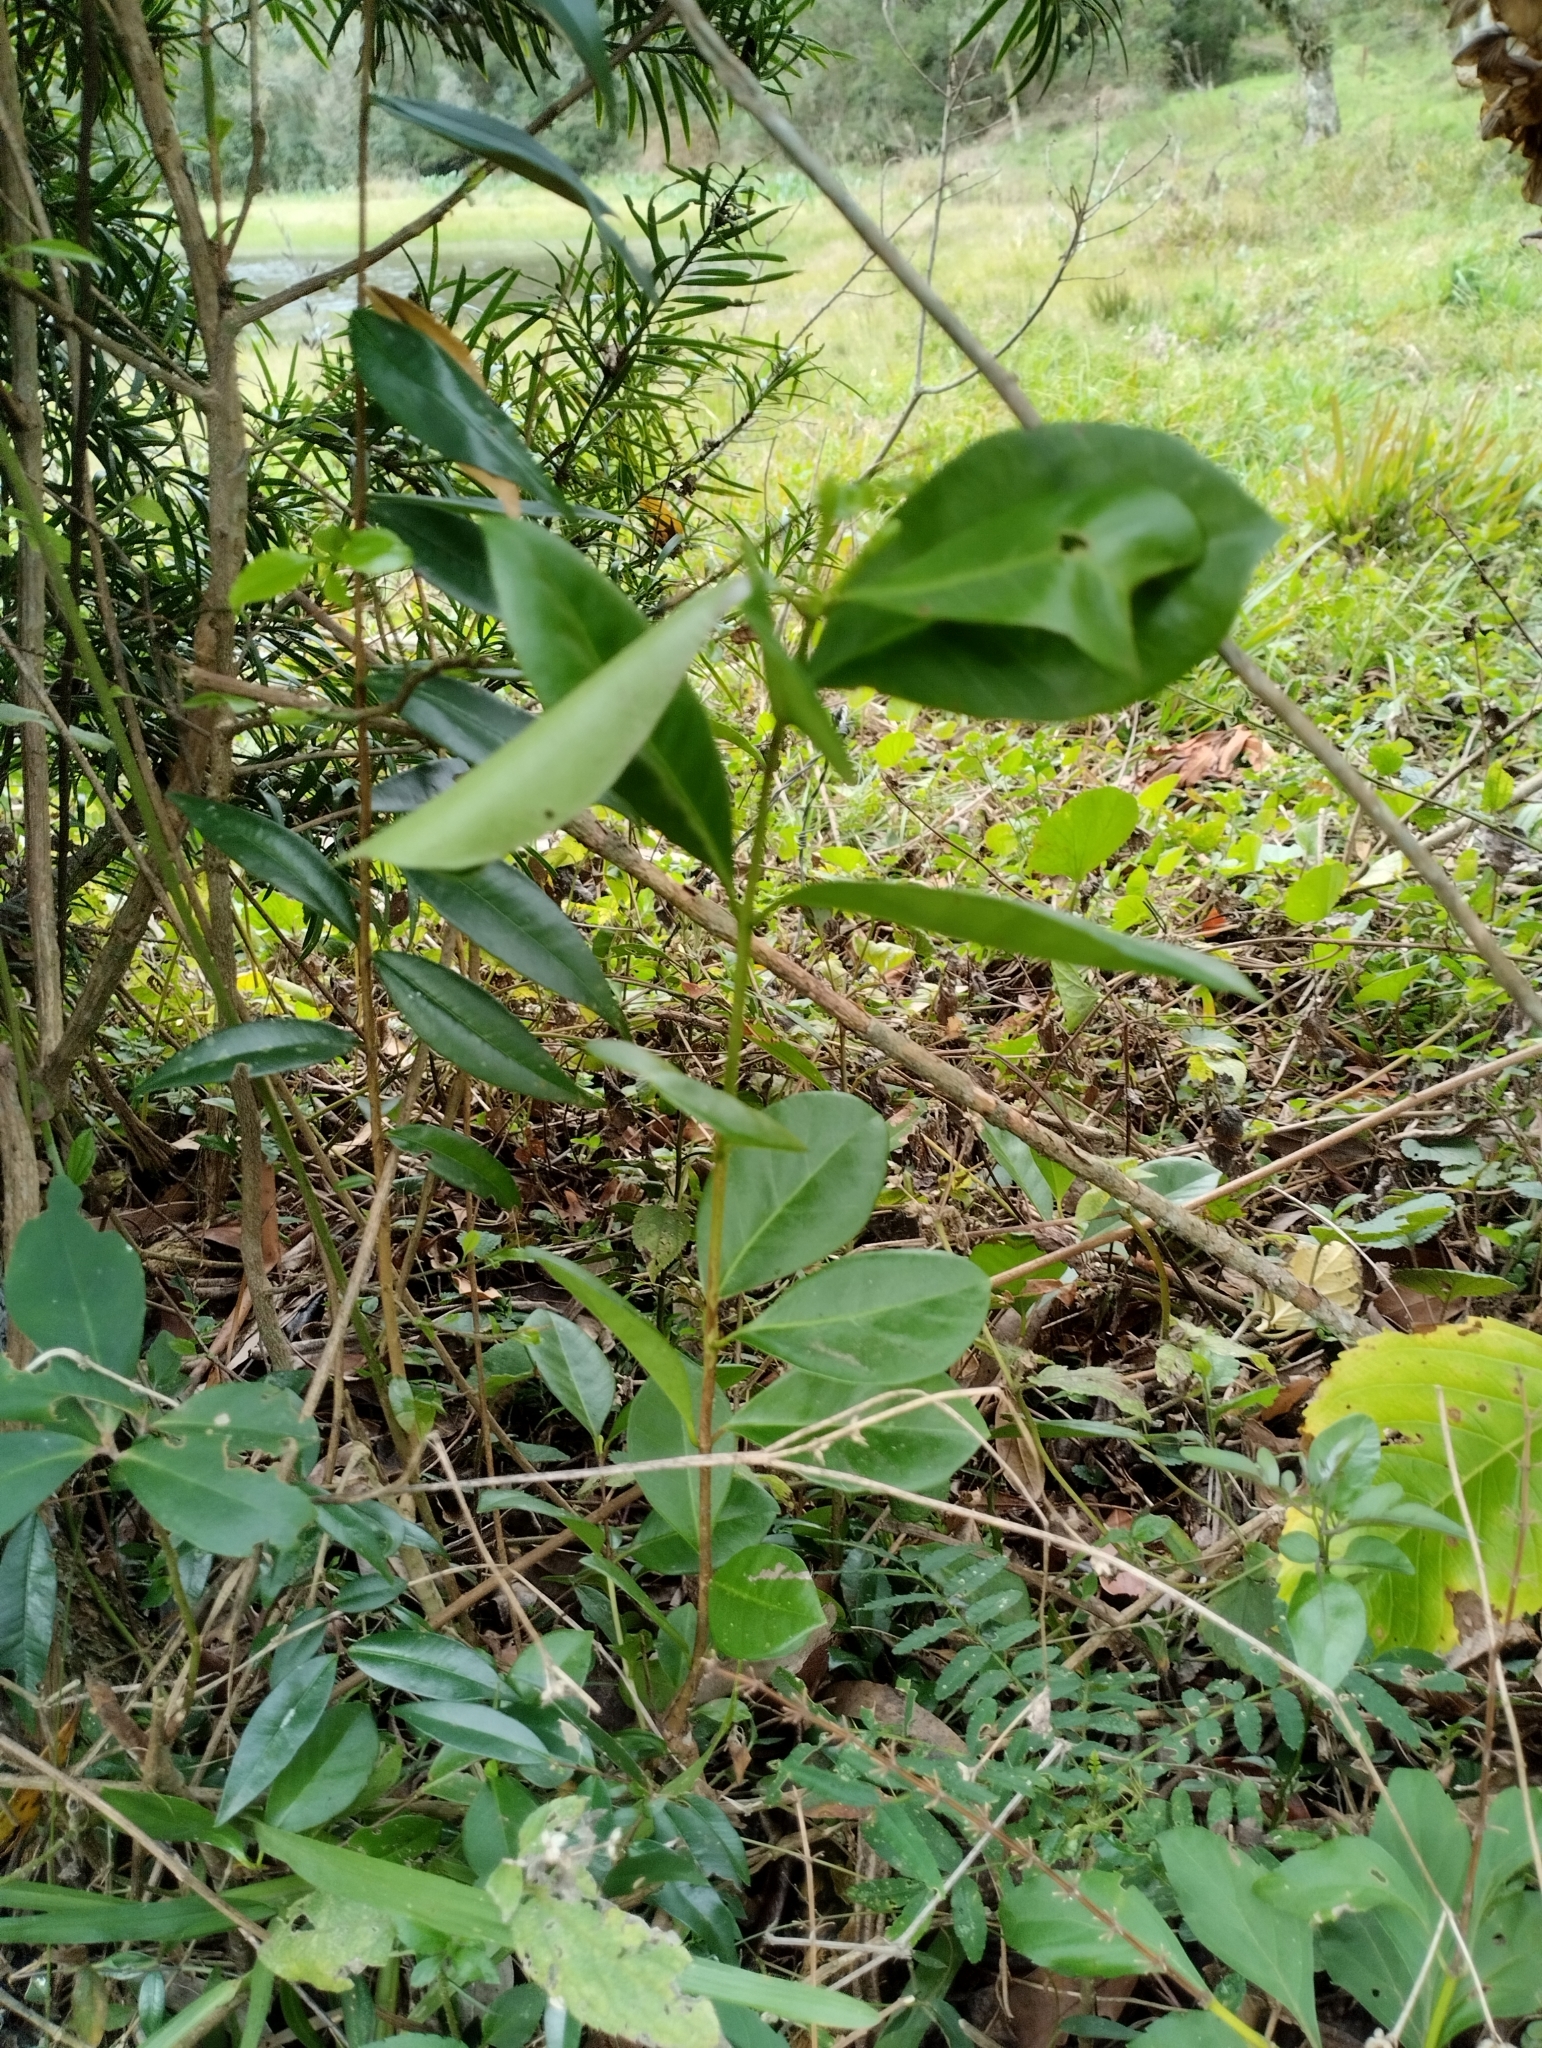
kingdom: Plantae
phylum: Tracheophyta
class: Magnoliopsida
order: Myrtales
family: Myrtaceae
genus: Psidium
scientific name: Psidium cattleianum
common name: Strawberry guava
